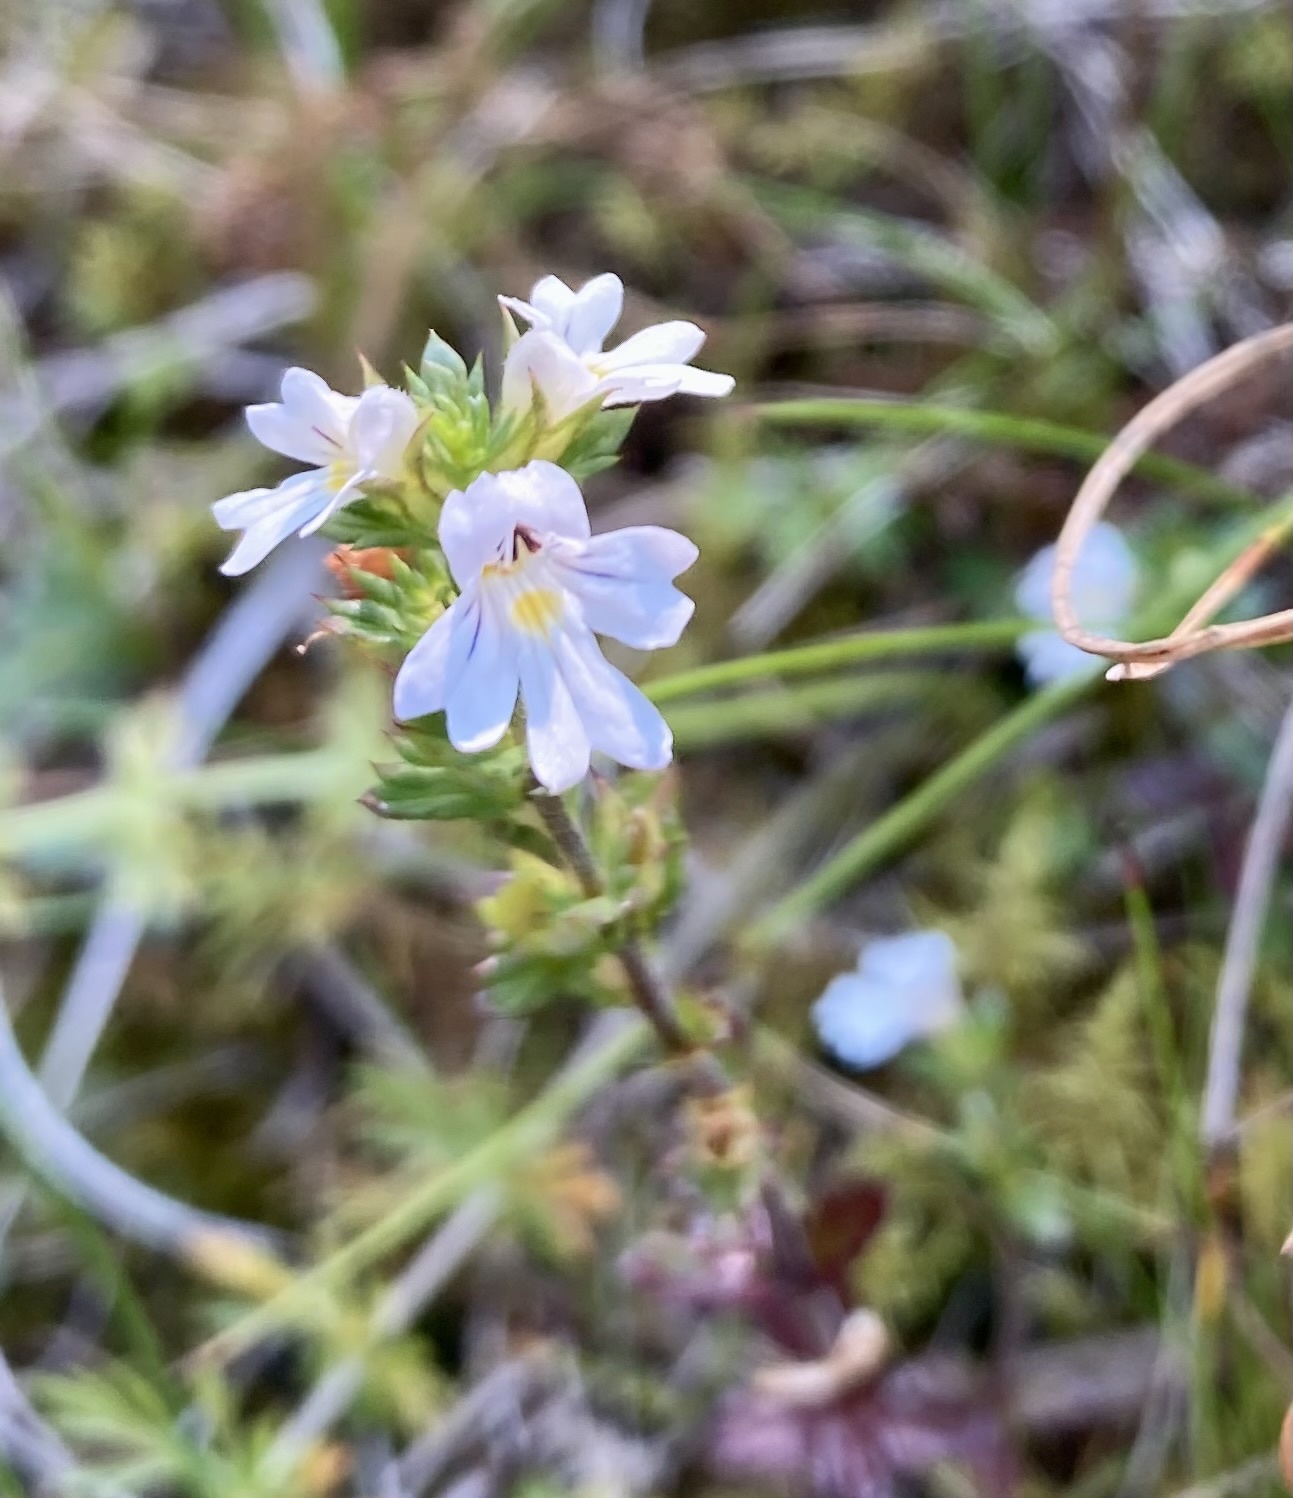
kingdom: Plantae
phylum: Tracheophyta
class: Magnoliopsida
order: Lamiales
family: Orobanchaceae
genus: Euphrasia
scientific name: Euphrasia nemorosa
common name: Common eyebright
